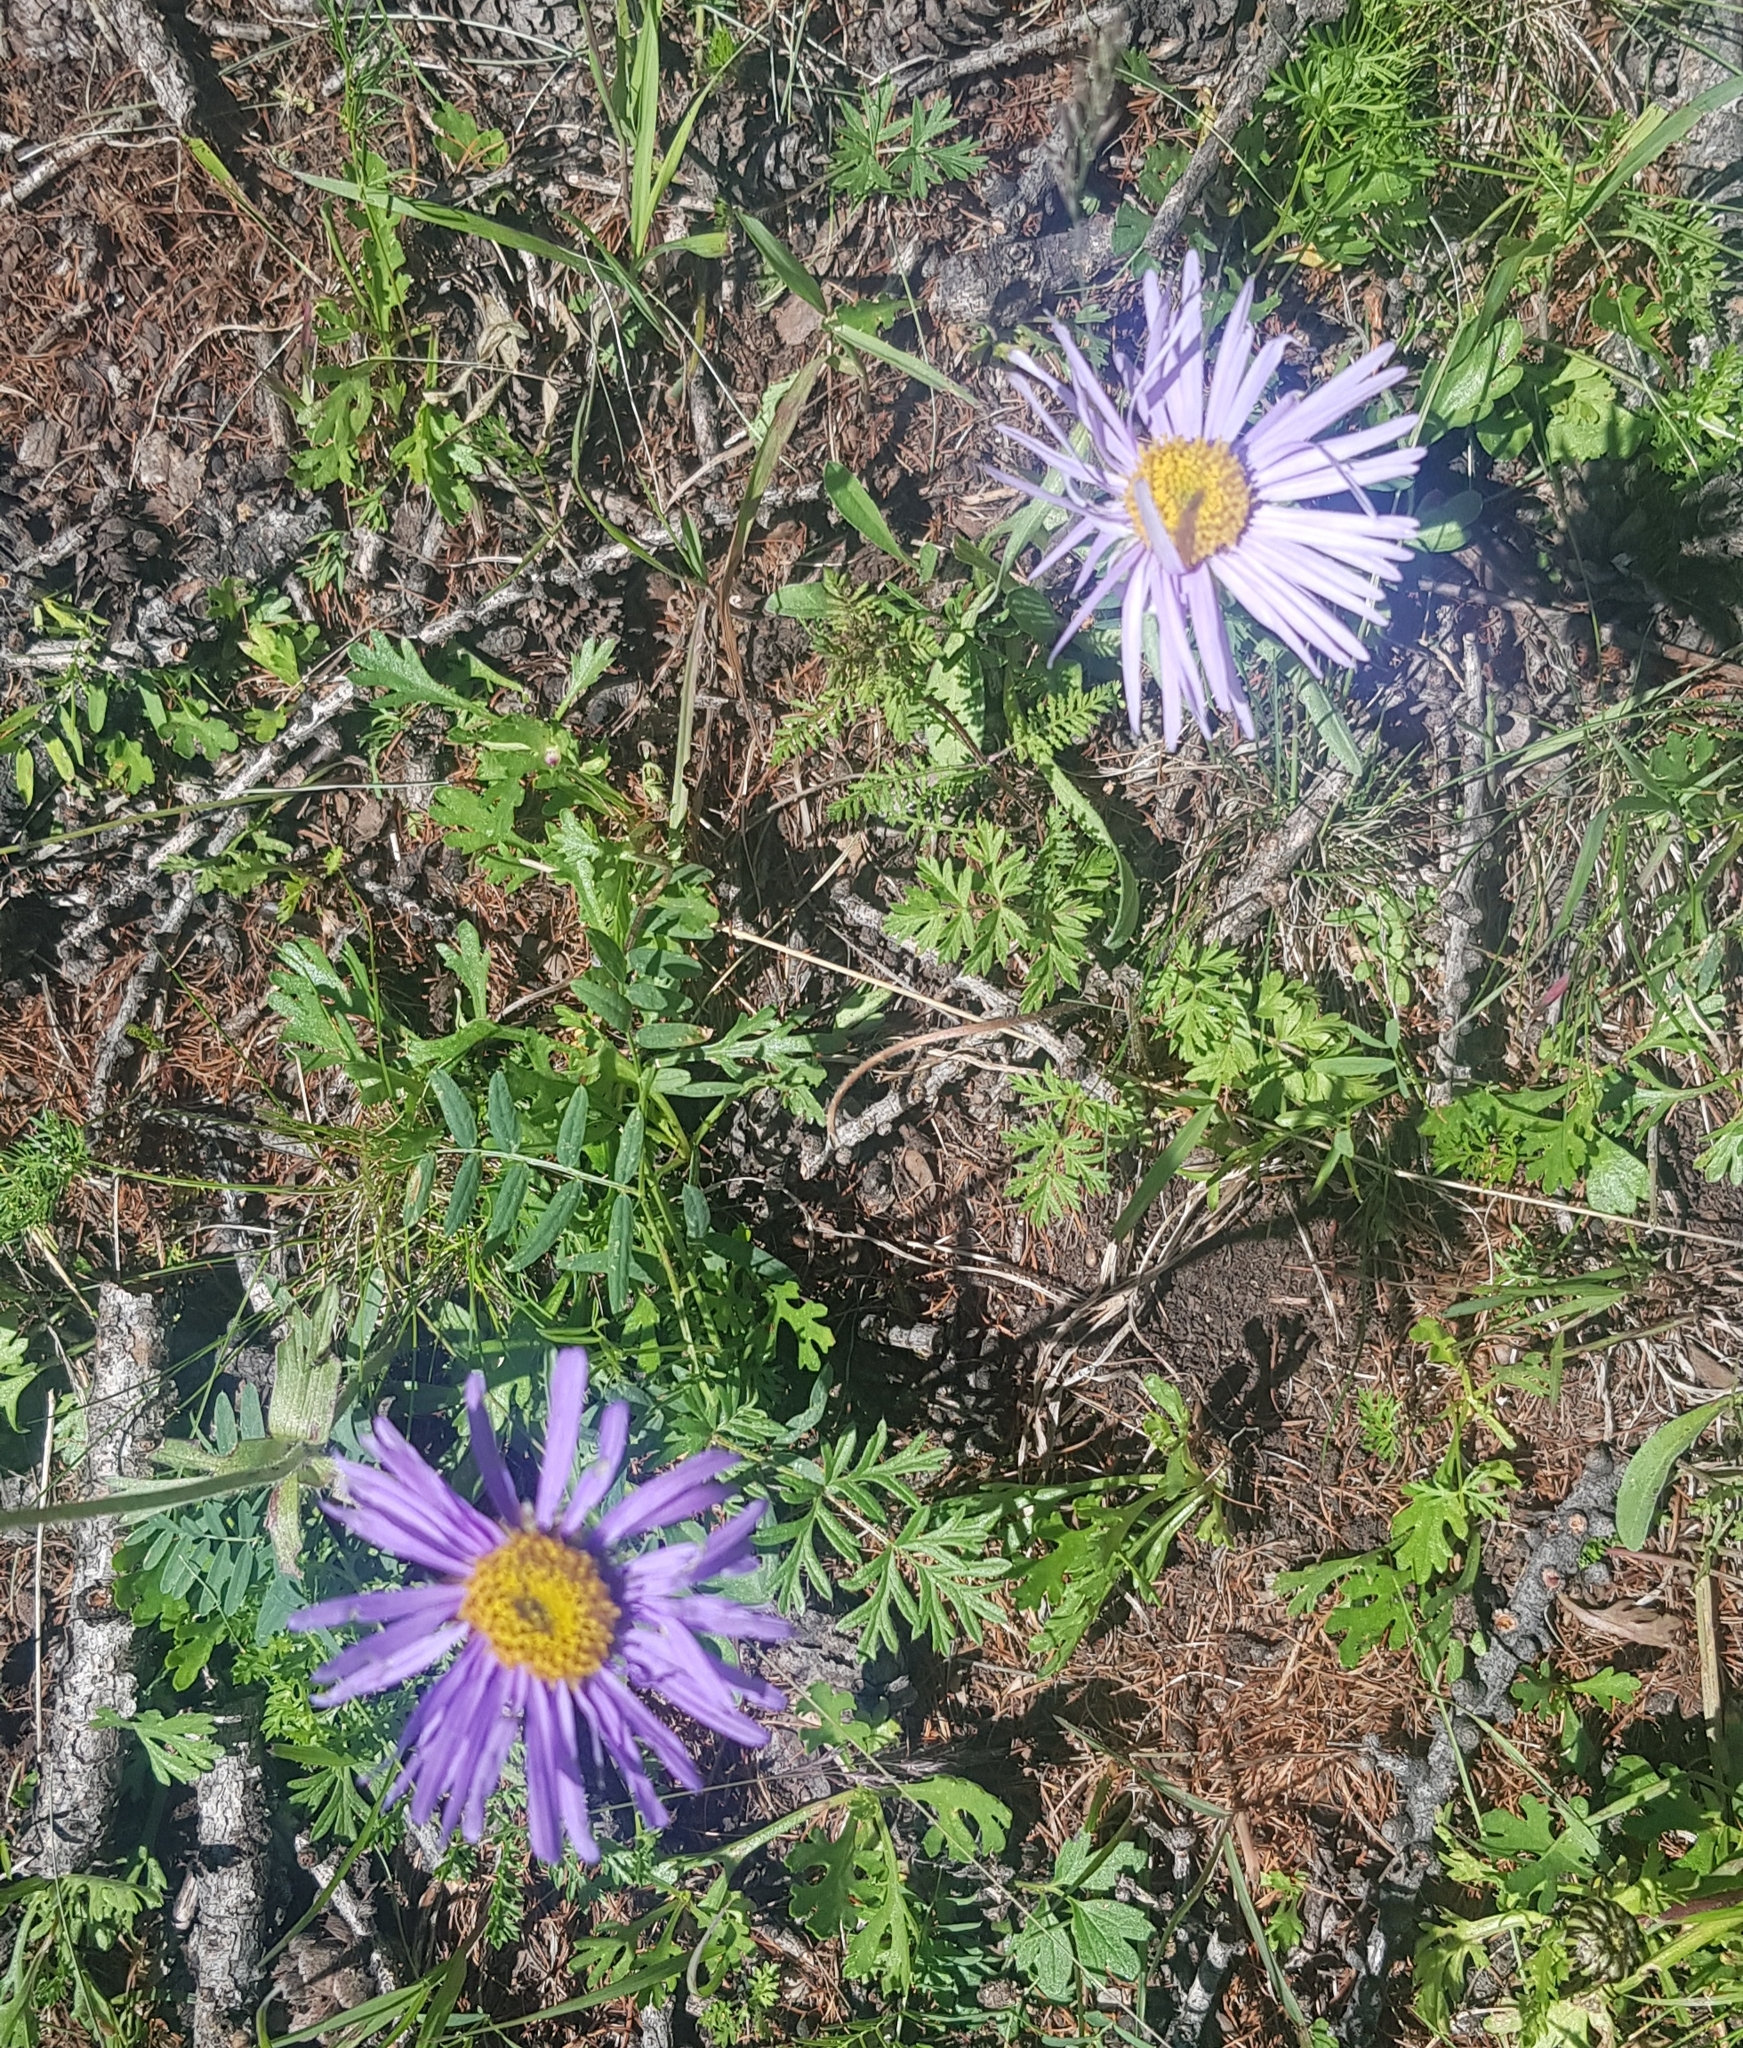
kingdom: Plantae
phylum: Tracheophyta
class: Magnoliopsida
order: Asterales
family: Asteraceae
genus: Aster
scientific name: Aster alpinus
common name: Alpine aster
